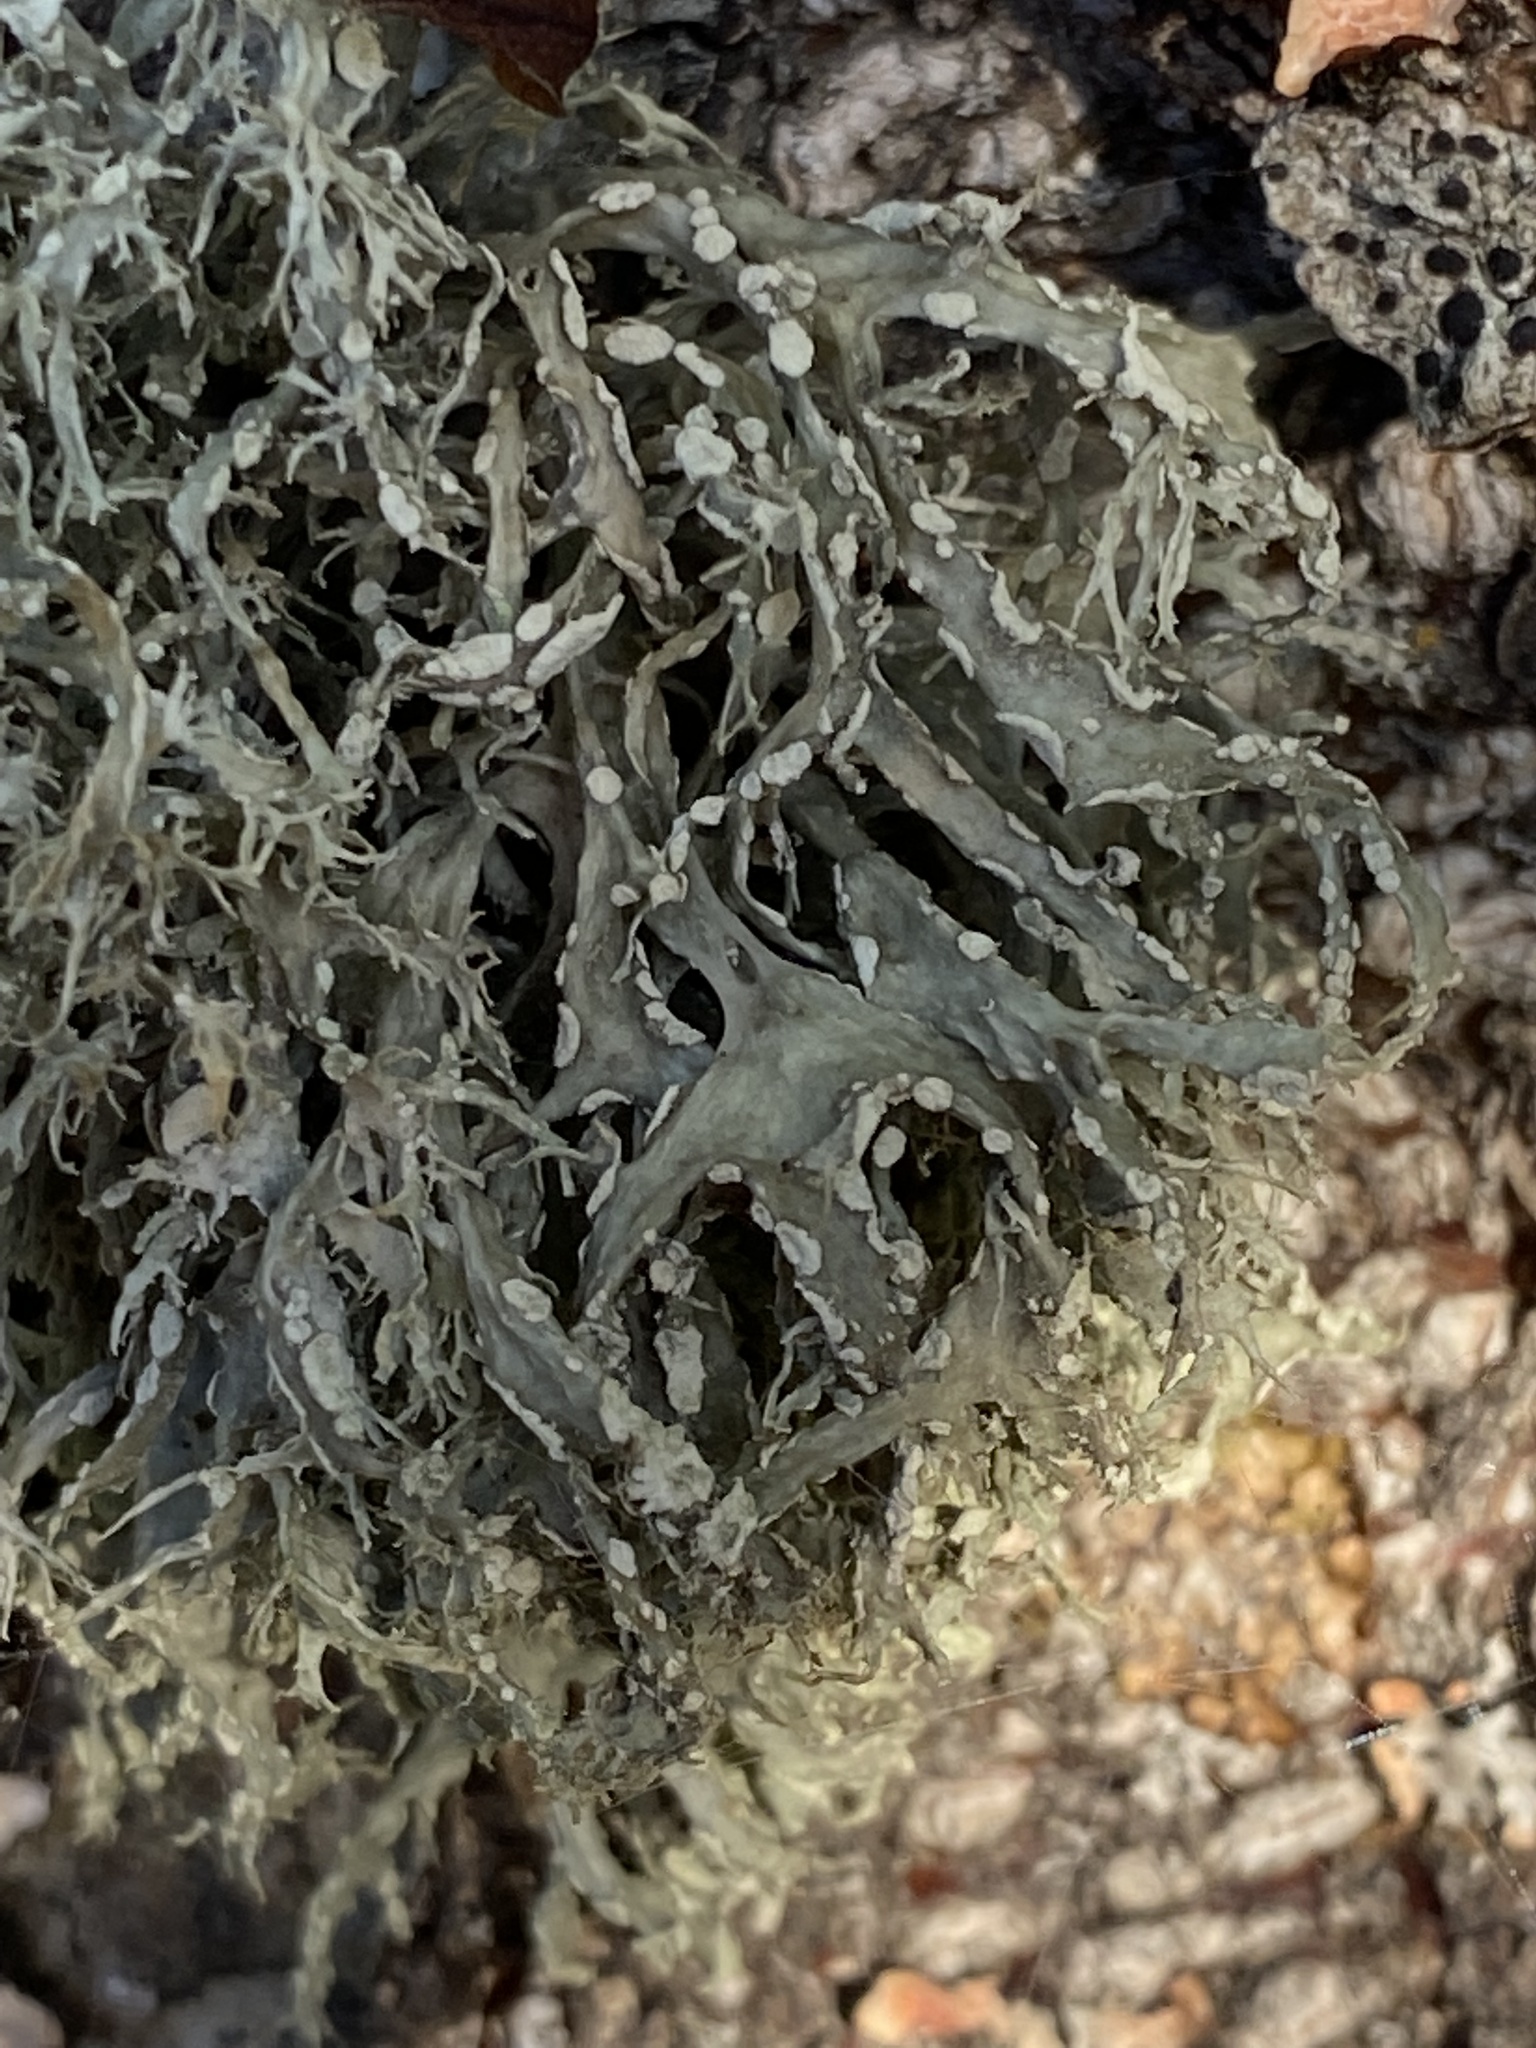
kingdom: Fungi
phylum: Ascomycota
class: Lecanoromycetes
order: Lecanorales
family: Ramalinaceae
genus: Ramalina
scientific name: Ramalina farinacea
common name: Farinose cartilage lichen
